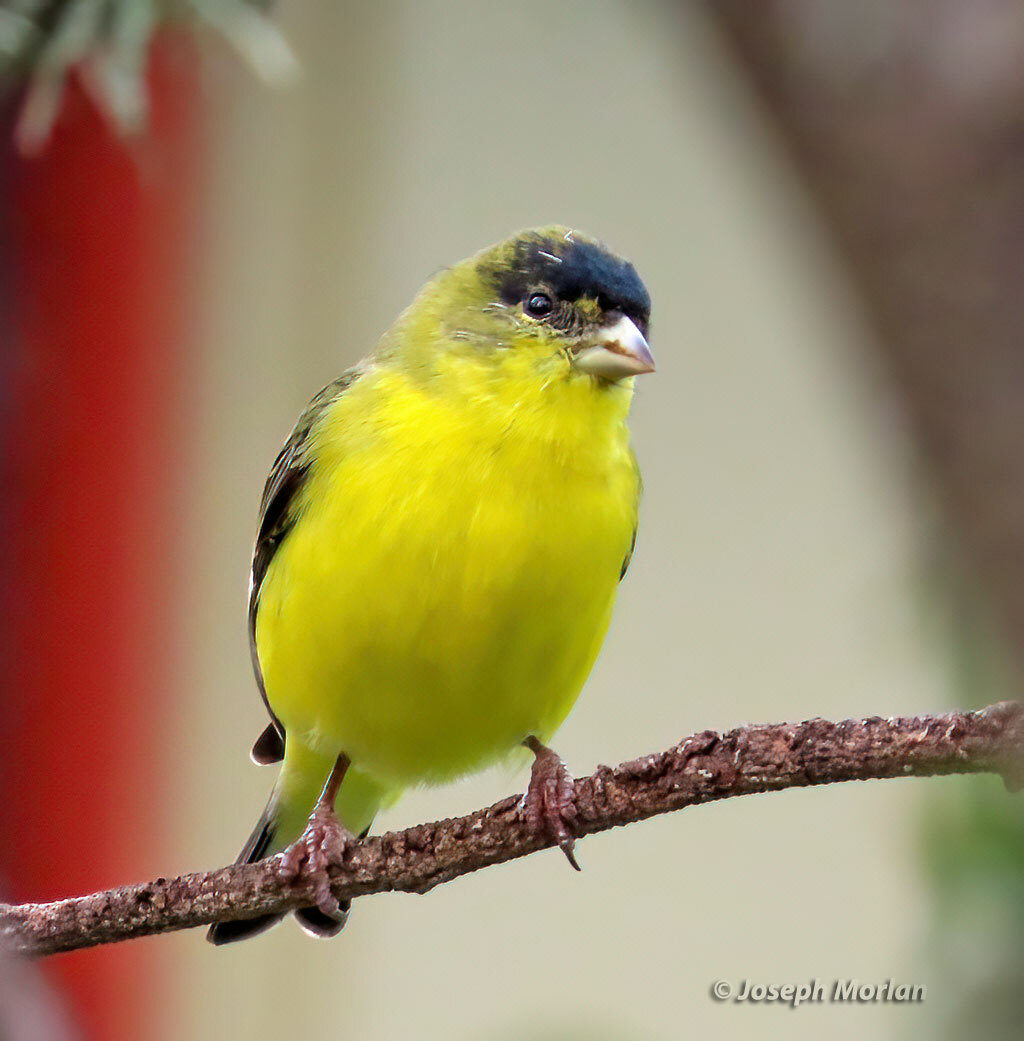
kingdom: Animalia
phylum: Chordata
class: Aves
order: Passeriformes
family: Fringillidae
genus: Spinus
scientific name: Spinus psaltria
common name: Lesser goldfinch
